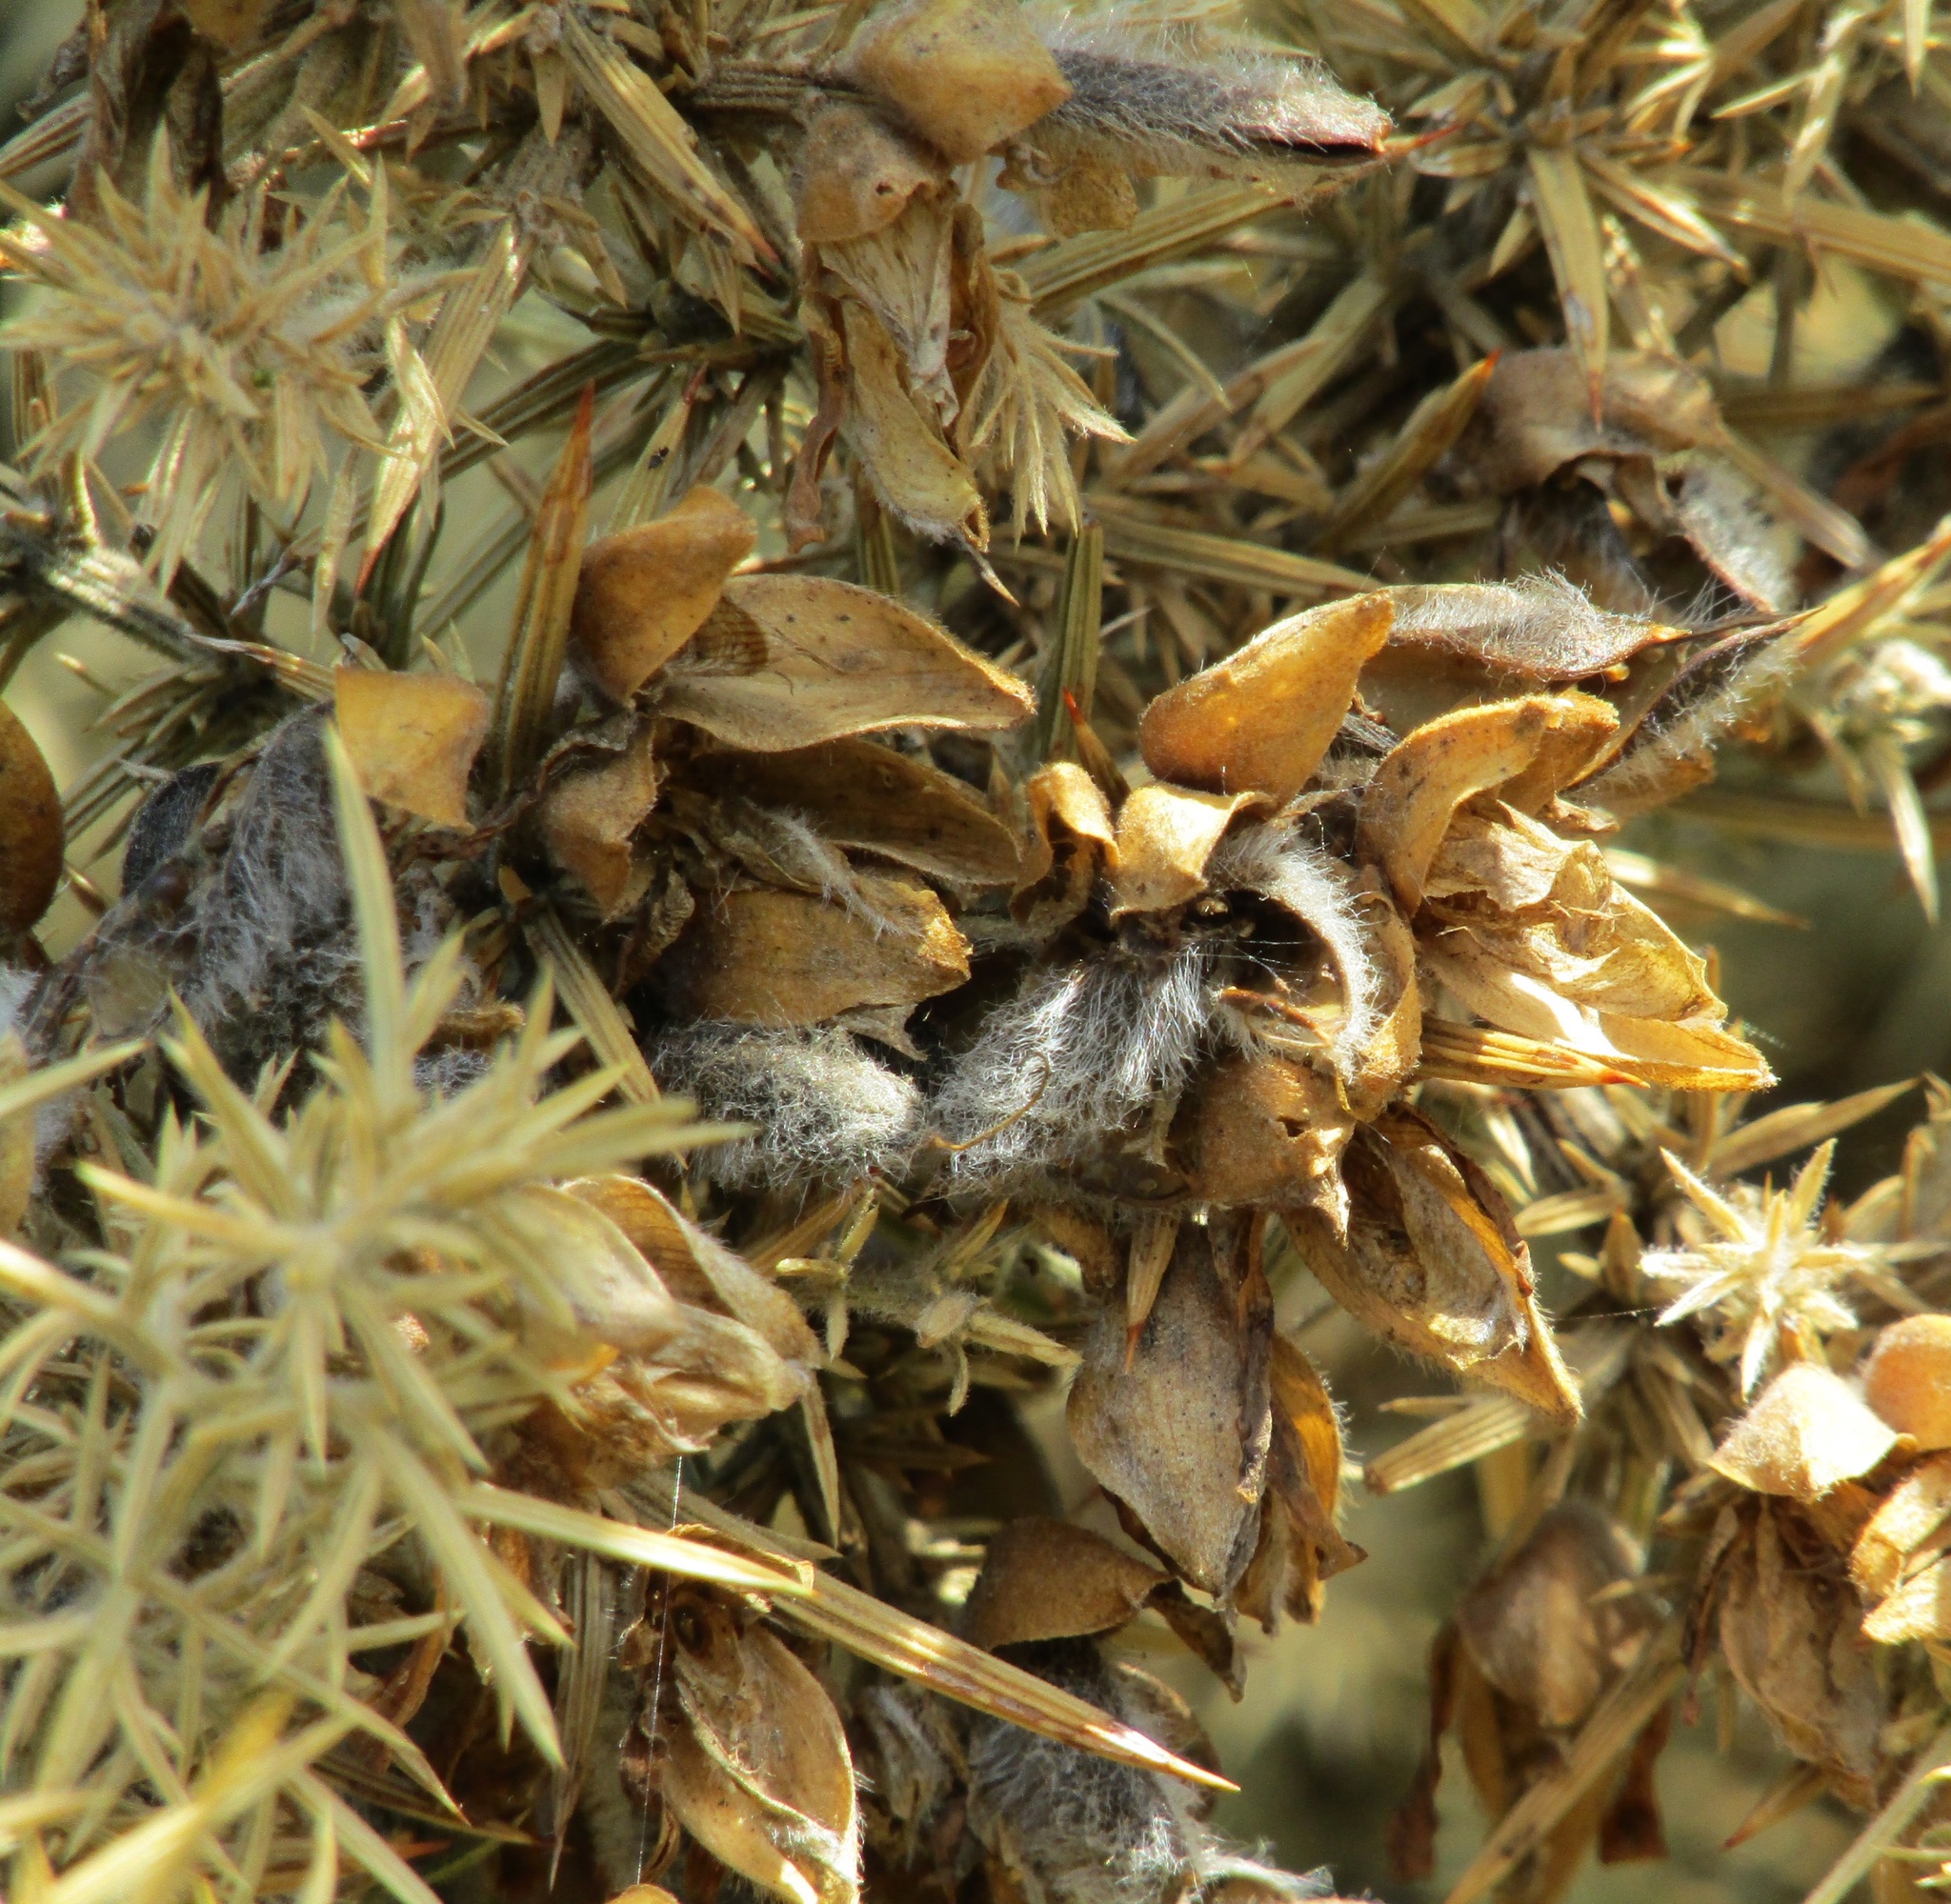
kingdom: Plantae
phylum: Tracheophyta
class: Magnoliopsida
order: Fabales
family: Fabaceae
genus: Ulex
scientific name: Ulex europaeus
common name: Common gorse
